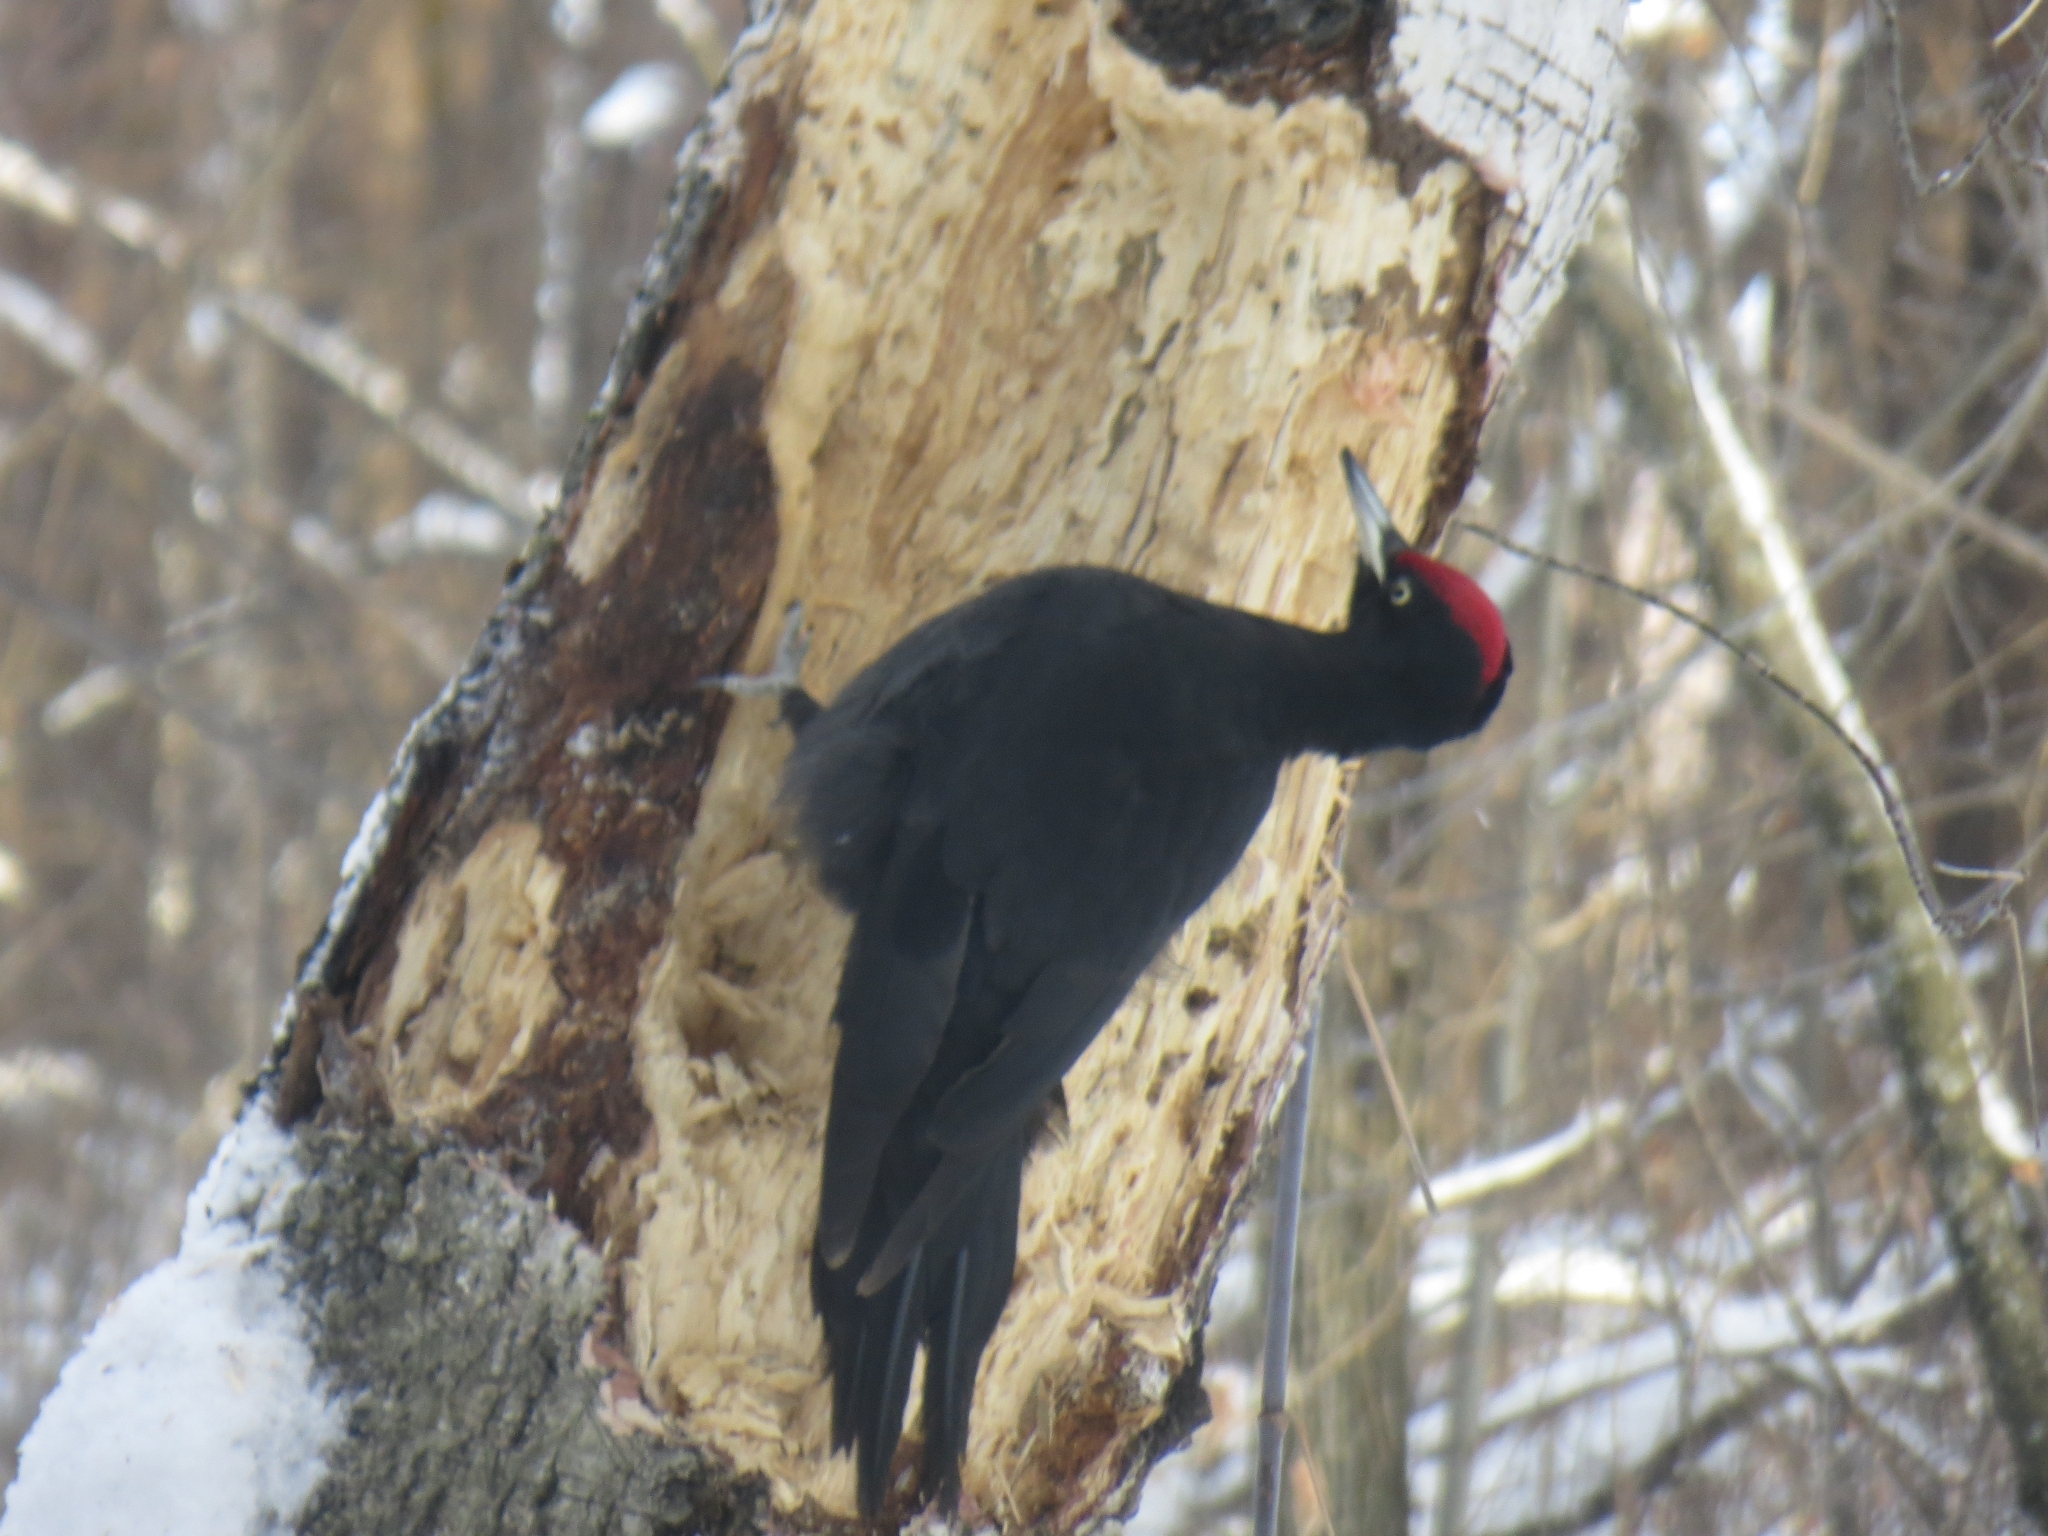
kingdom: Animalia
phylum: Chordata
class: Aves
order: Piciformes
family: Picidae
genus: Dryocopus
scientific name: Dryocopus martius
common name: Black woodpecker
